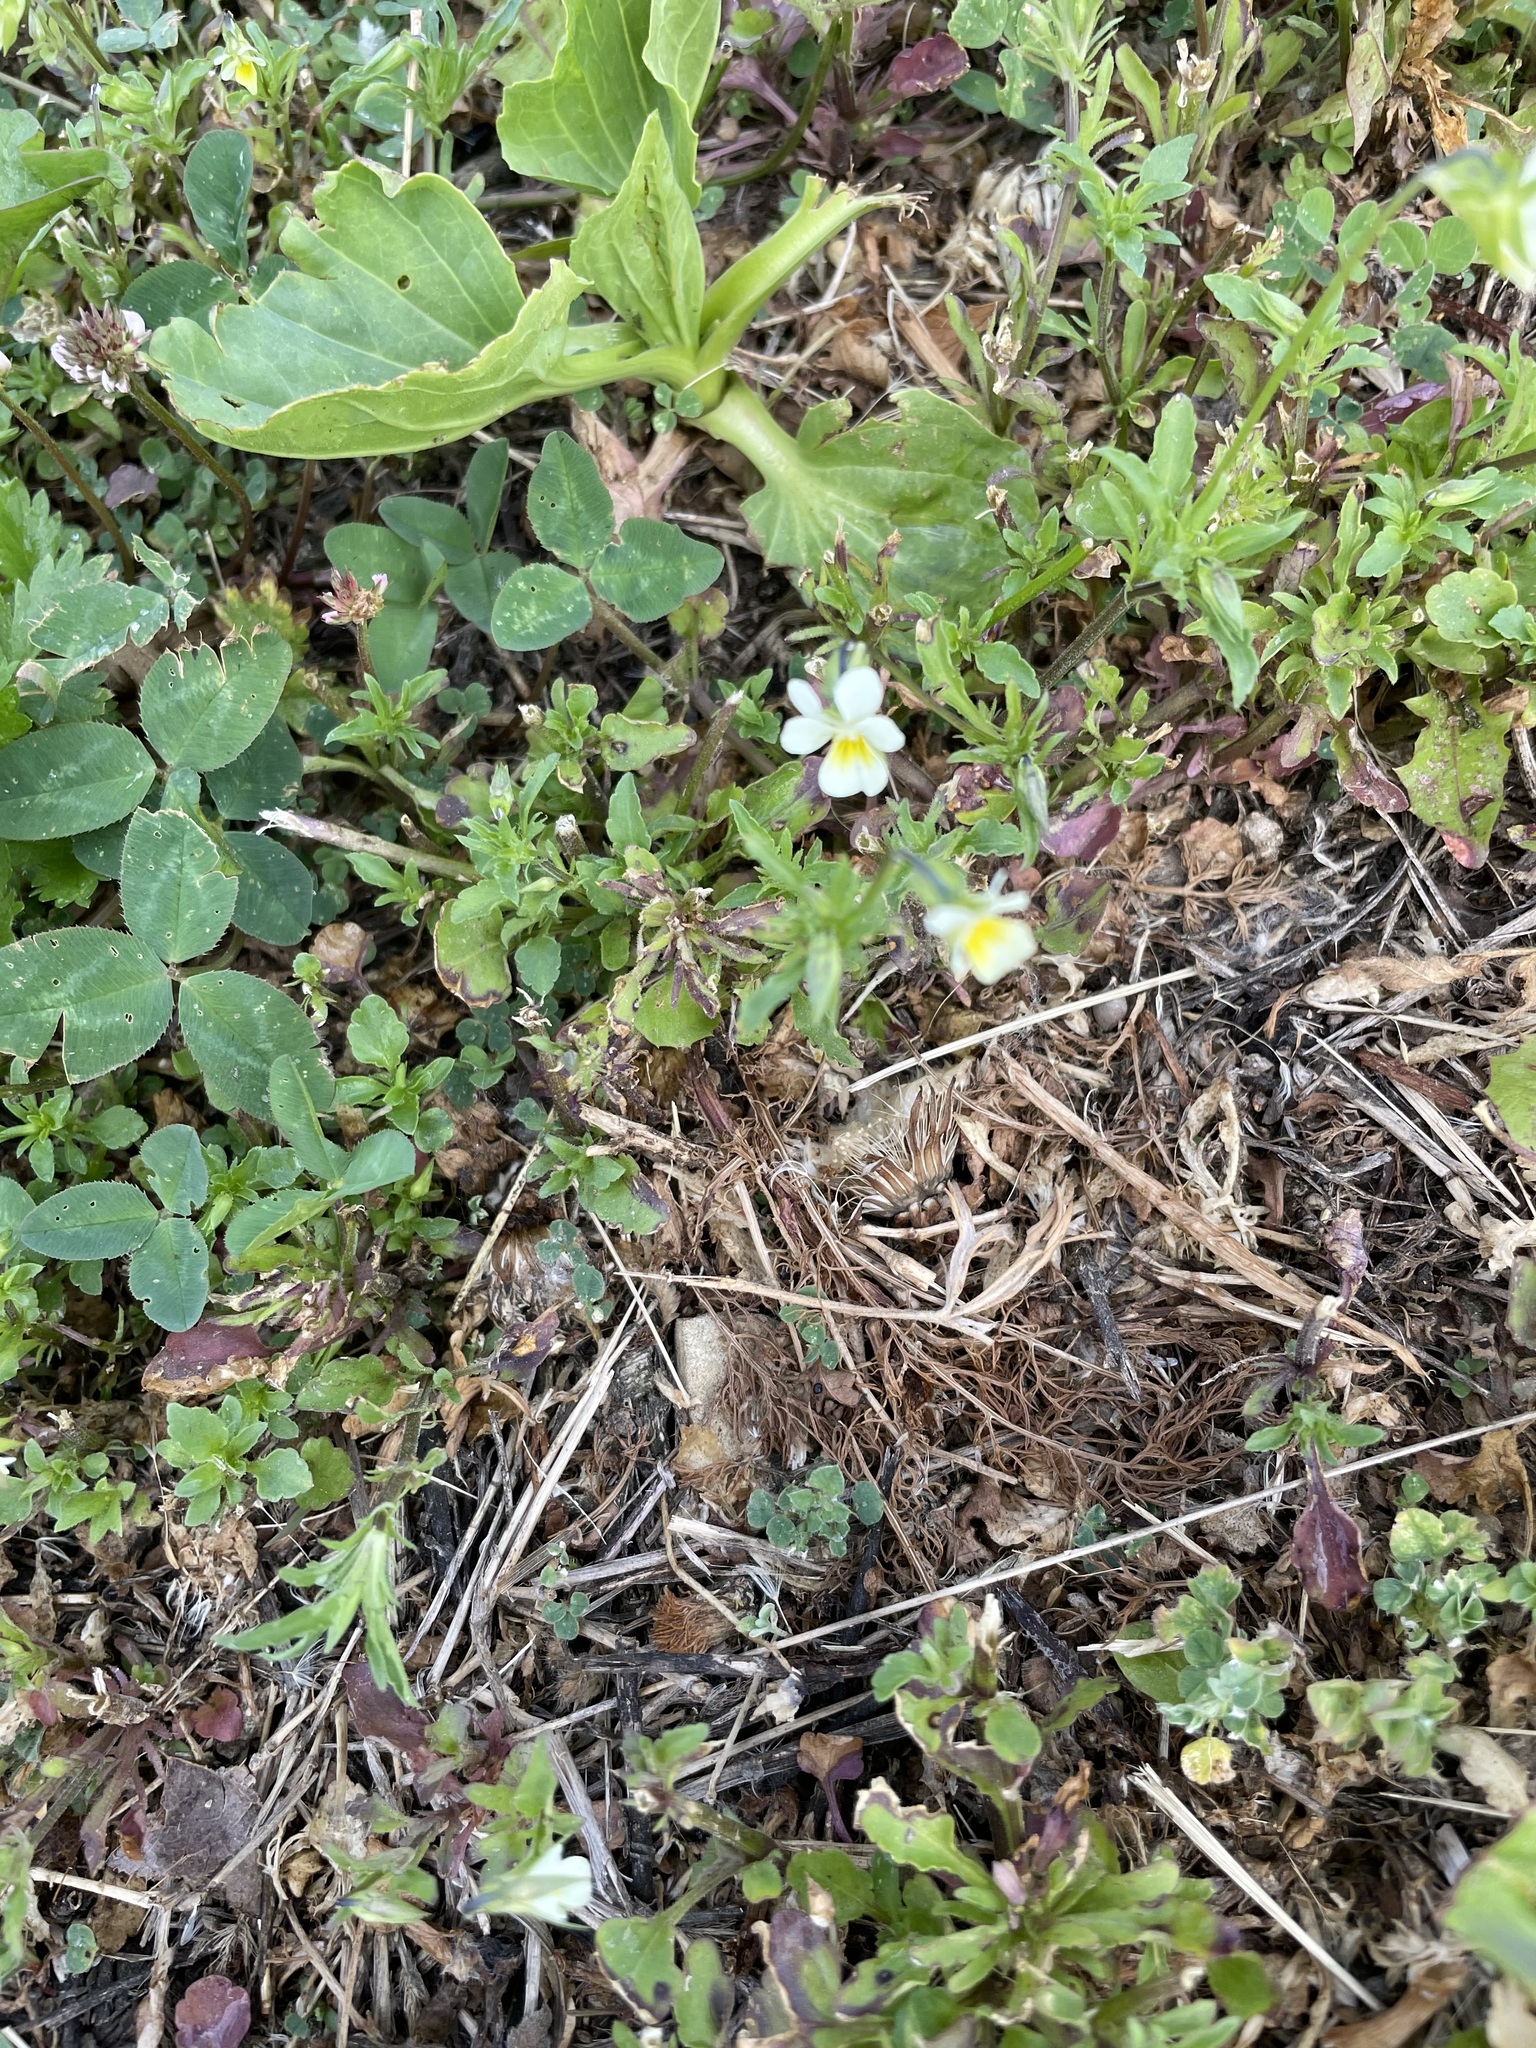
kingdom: Plantae
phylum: Tracheophyta
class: Magnoliopsida
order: Malpighiales
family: Violaceae
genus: Viola
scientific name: Viola arvensis
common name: Field pansy
